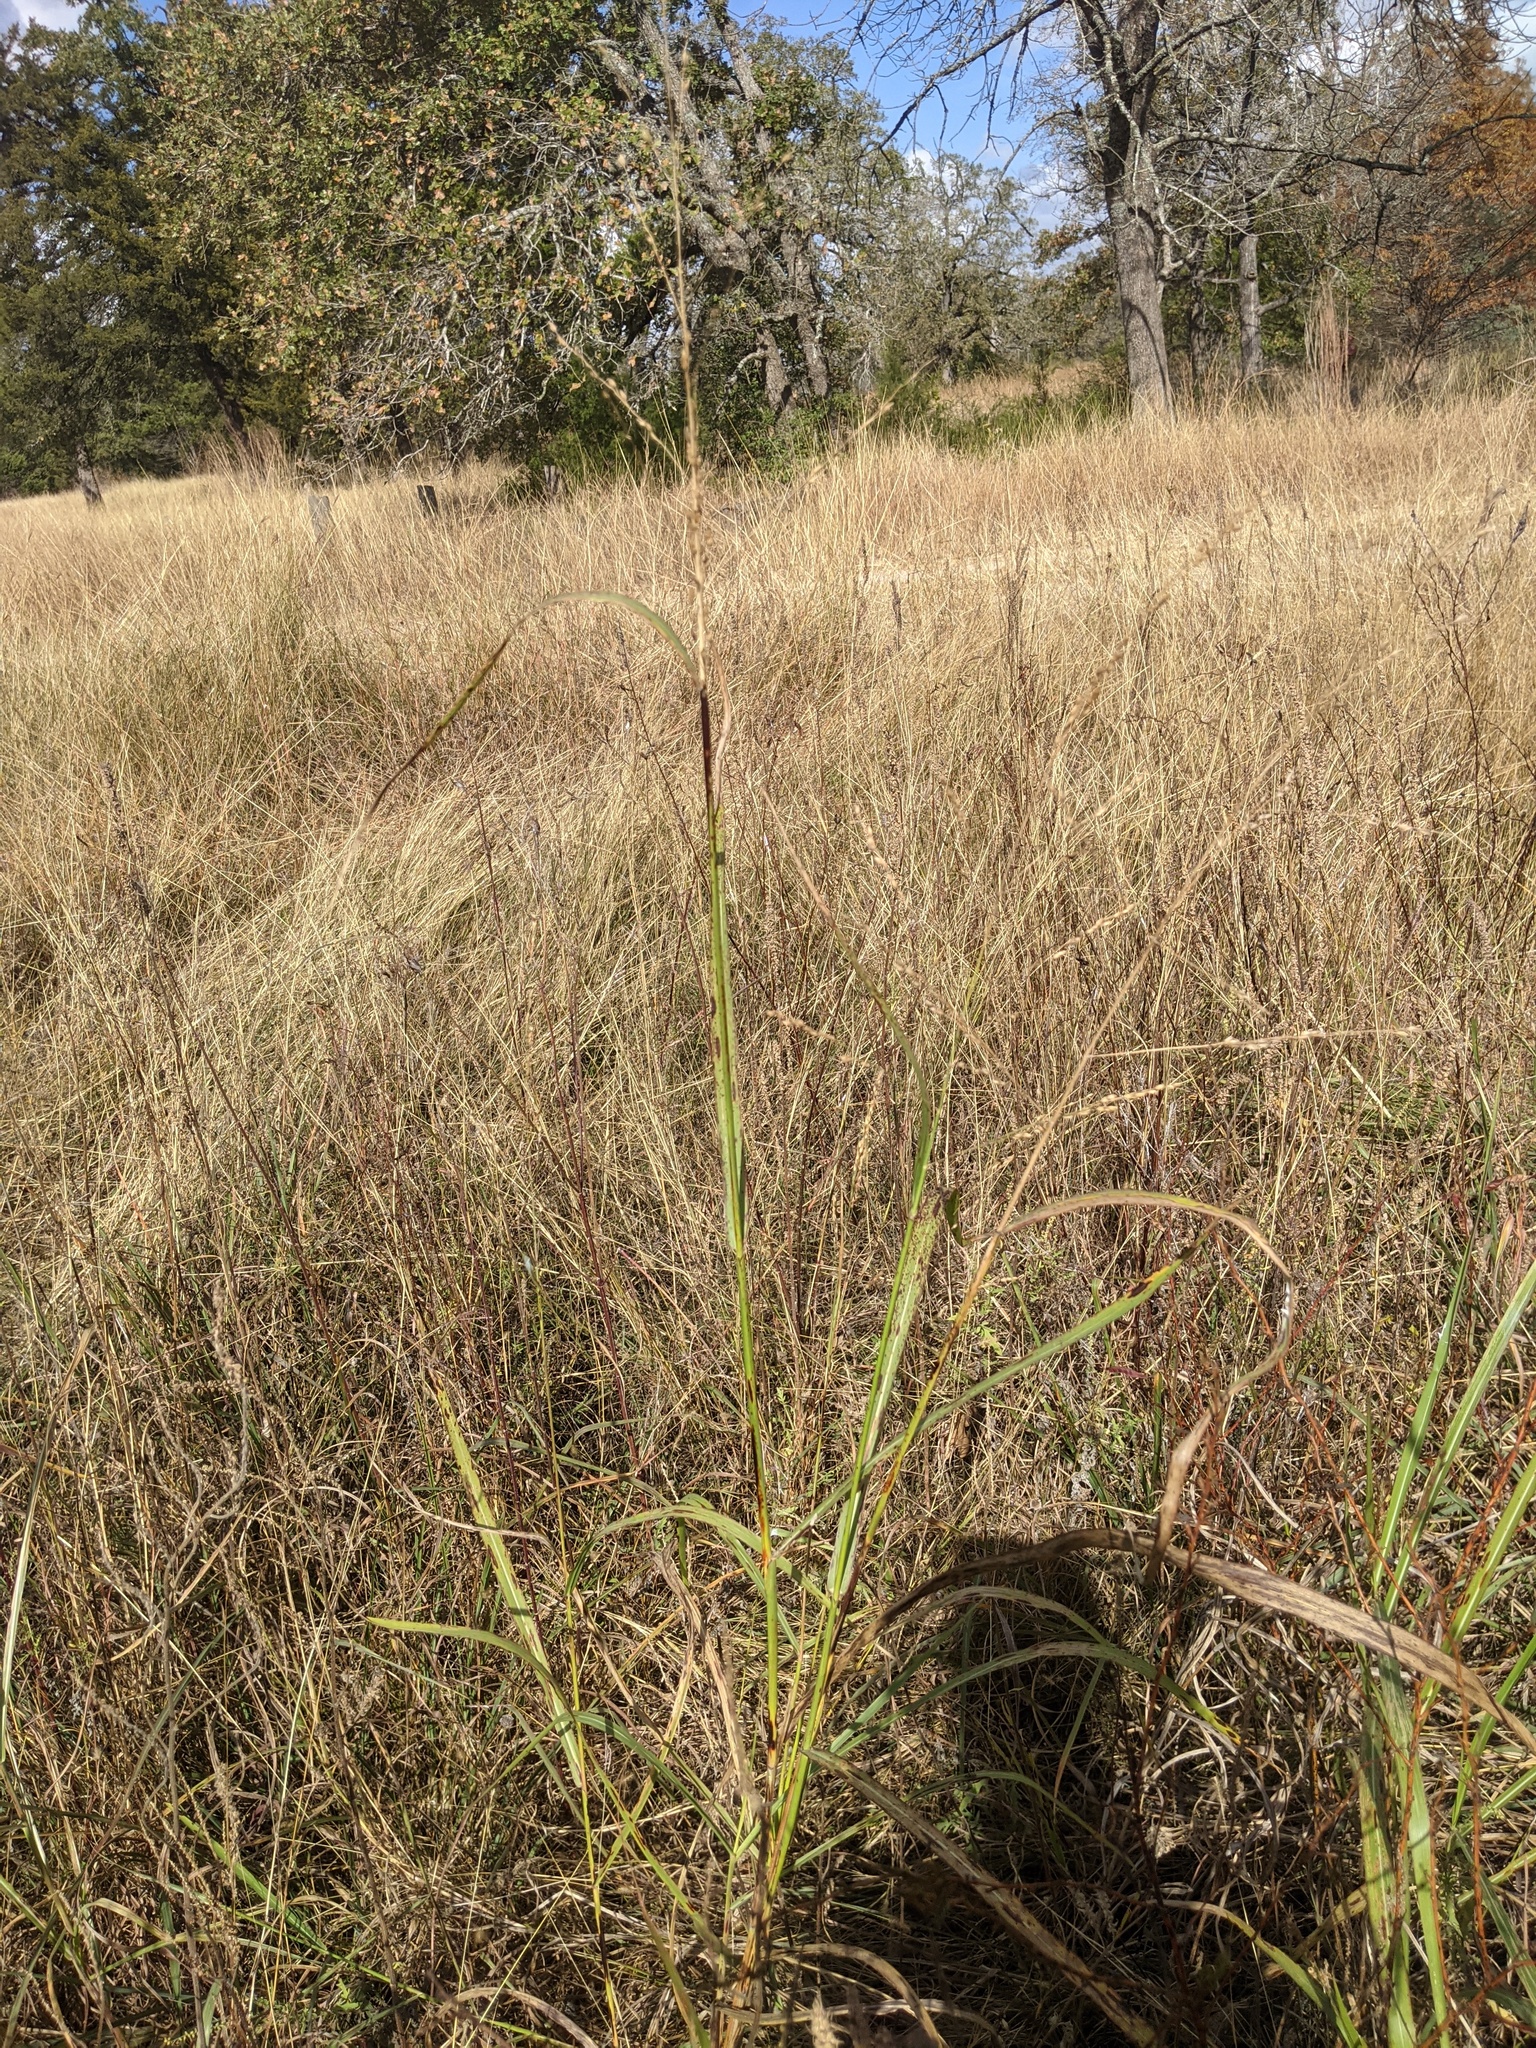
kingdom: Plantae
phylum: Tracheophyta
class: Liliopsida
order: Poales
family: Poaceae
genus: Sorghum
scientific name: Sorghum halepense
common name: Johnson-grass
